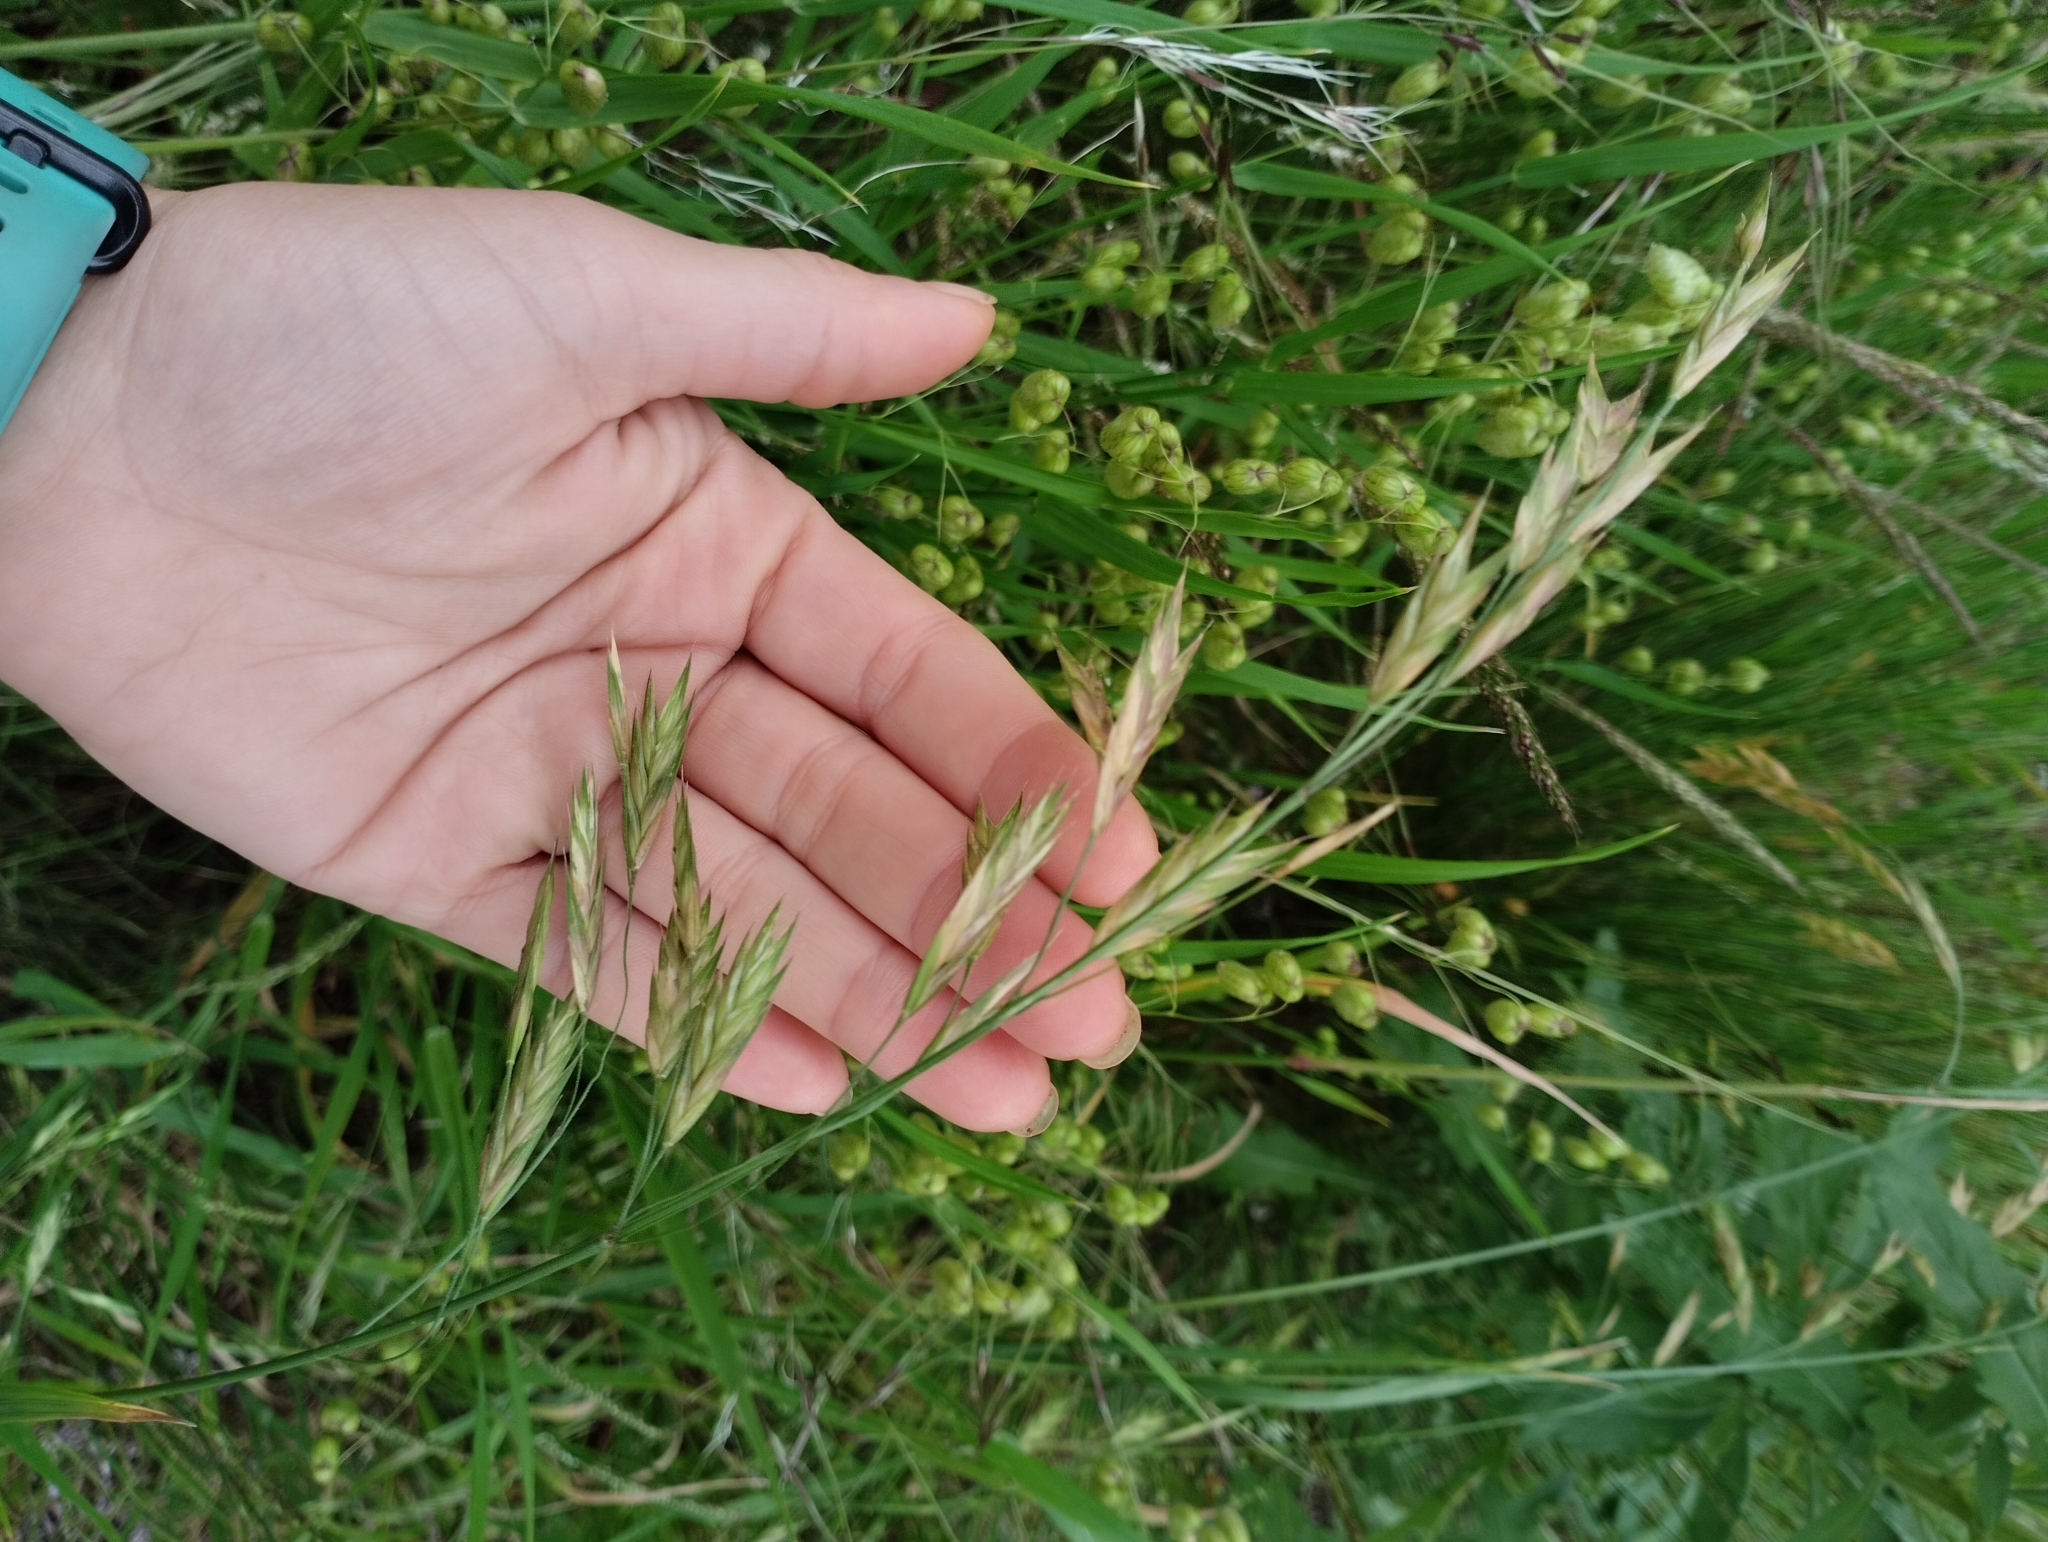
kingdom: Plantae
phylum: Tracheophyta
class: Liliopsida
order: Poales
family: Poaceae
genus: Bromus
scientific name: Bromus catharticus
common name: Rescuegrass
